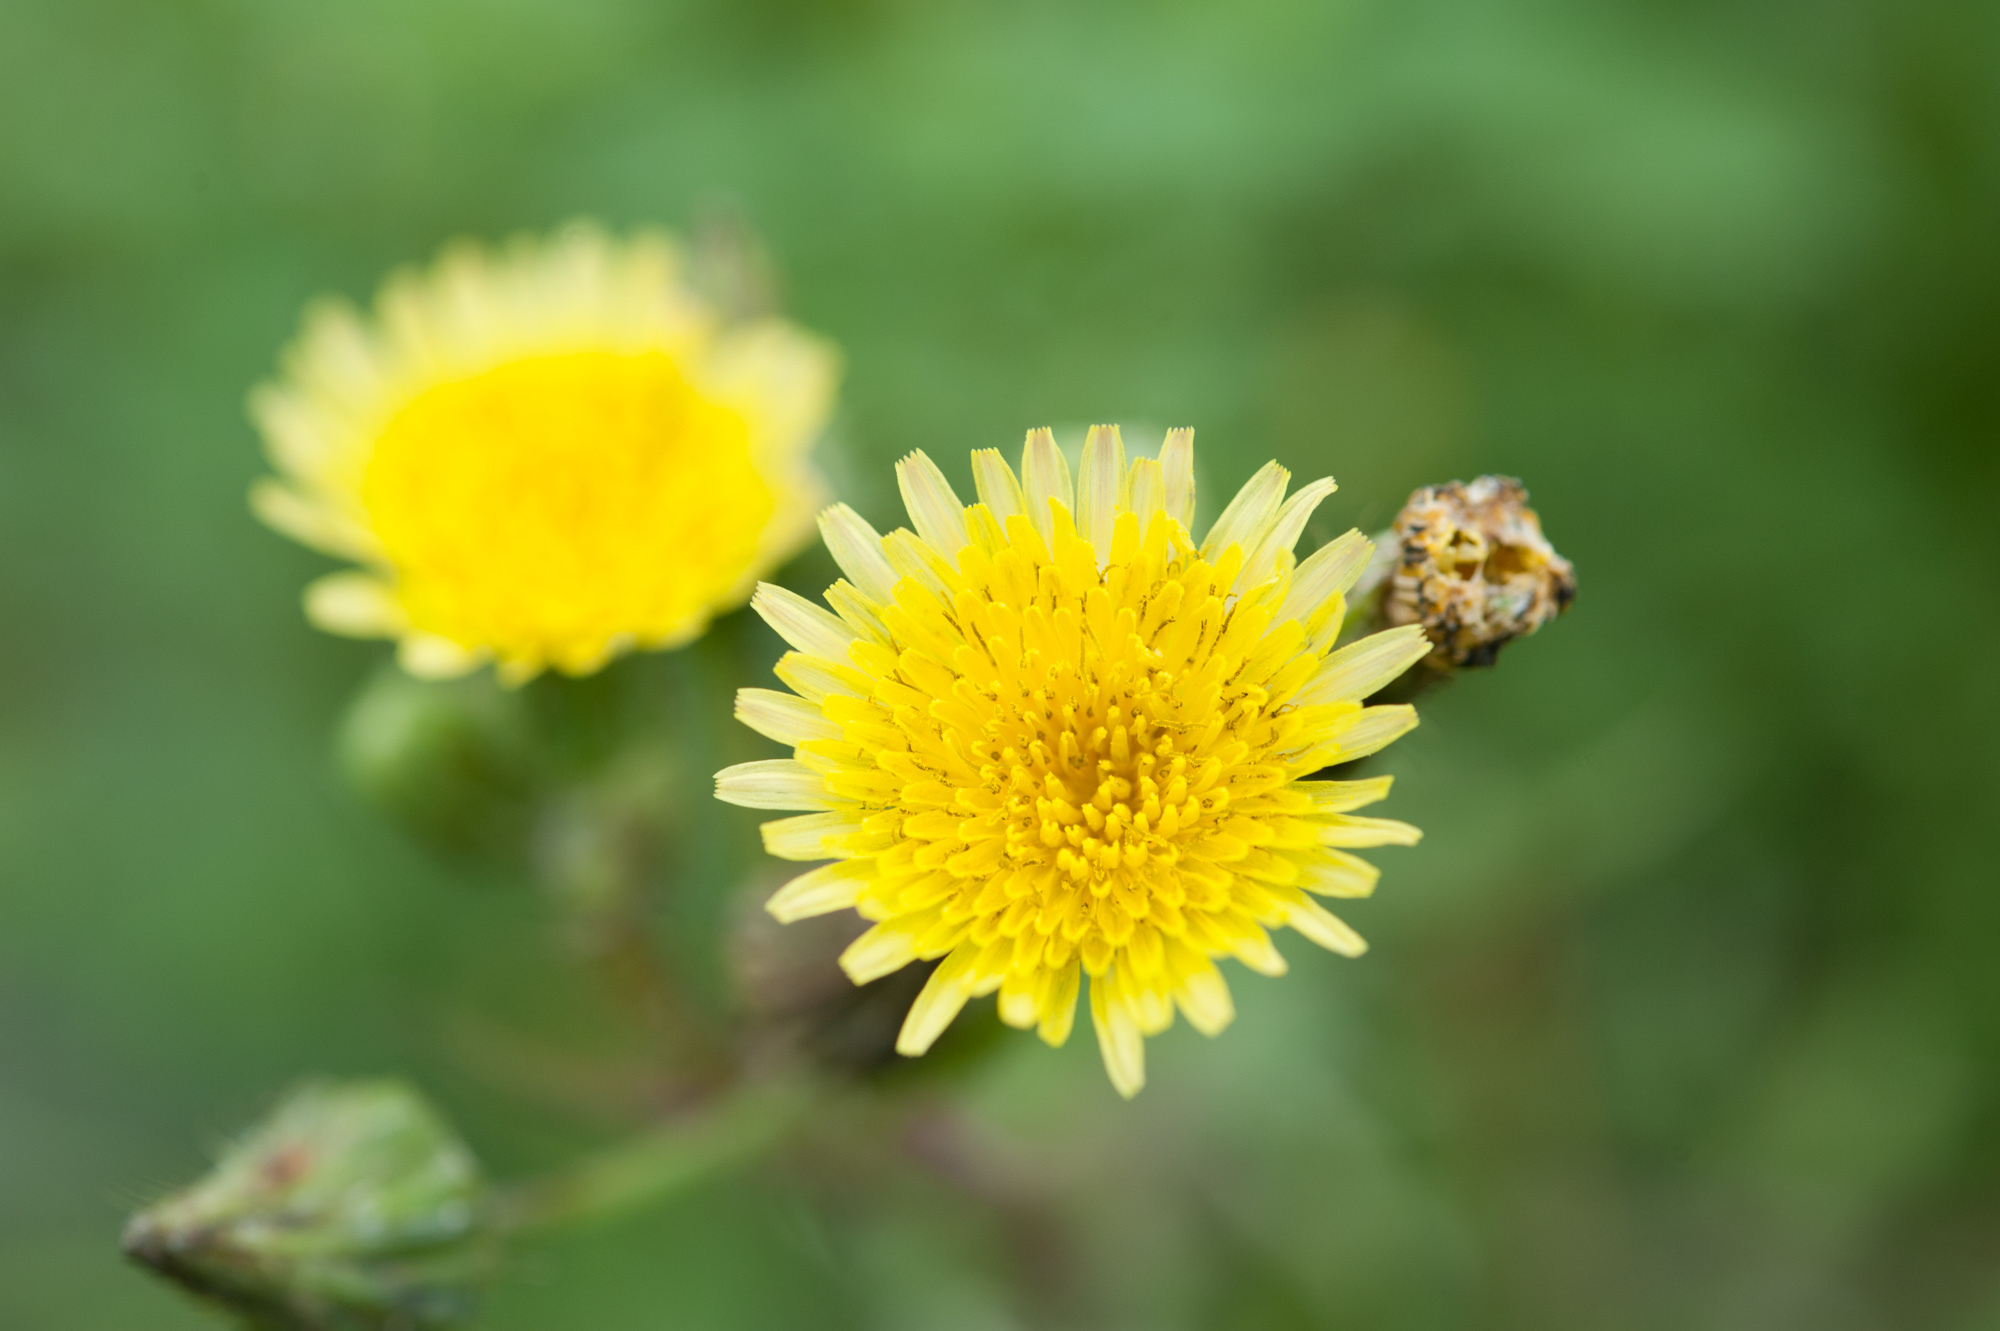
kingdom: Plantae
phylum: Tracheophyta
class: Magnoliopsida
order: Asterales
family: Asteraceae
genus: Sonchus
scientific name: Sonchus oleraceus
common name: Common sowthistle
